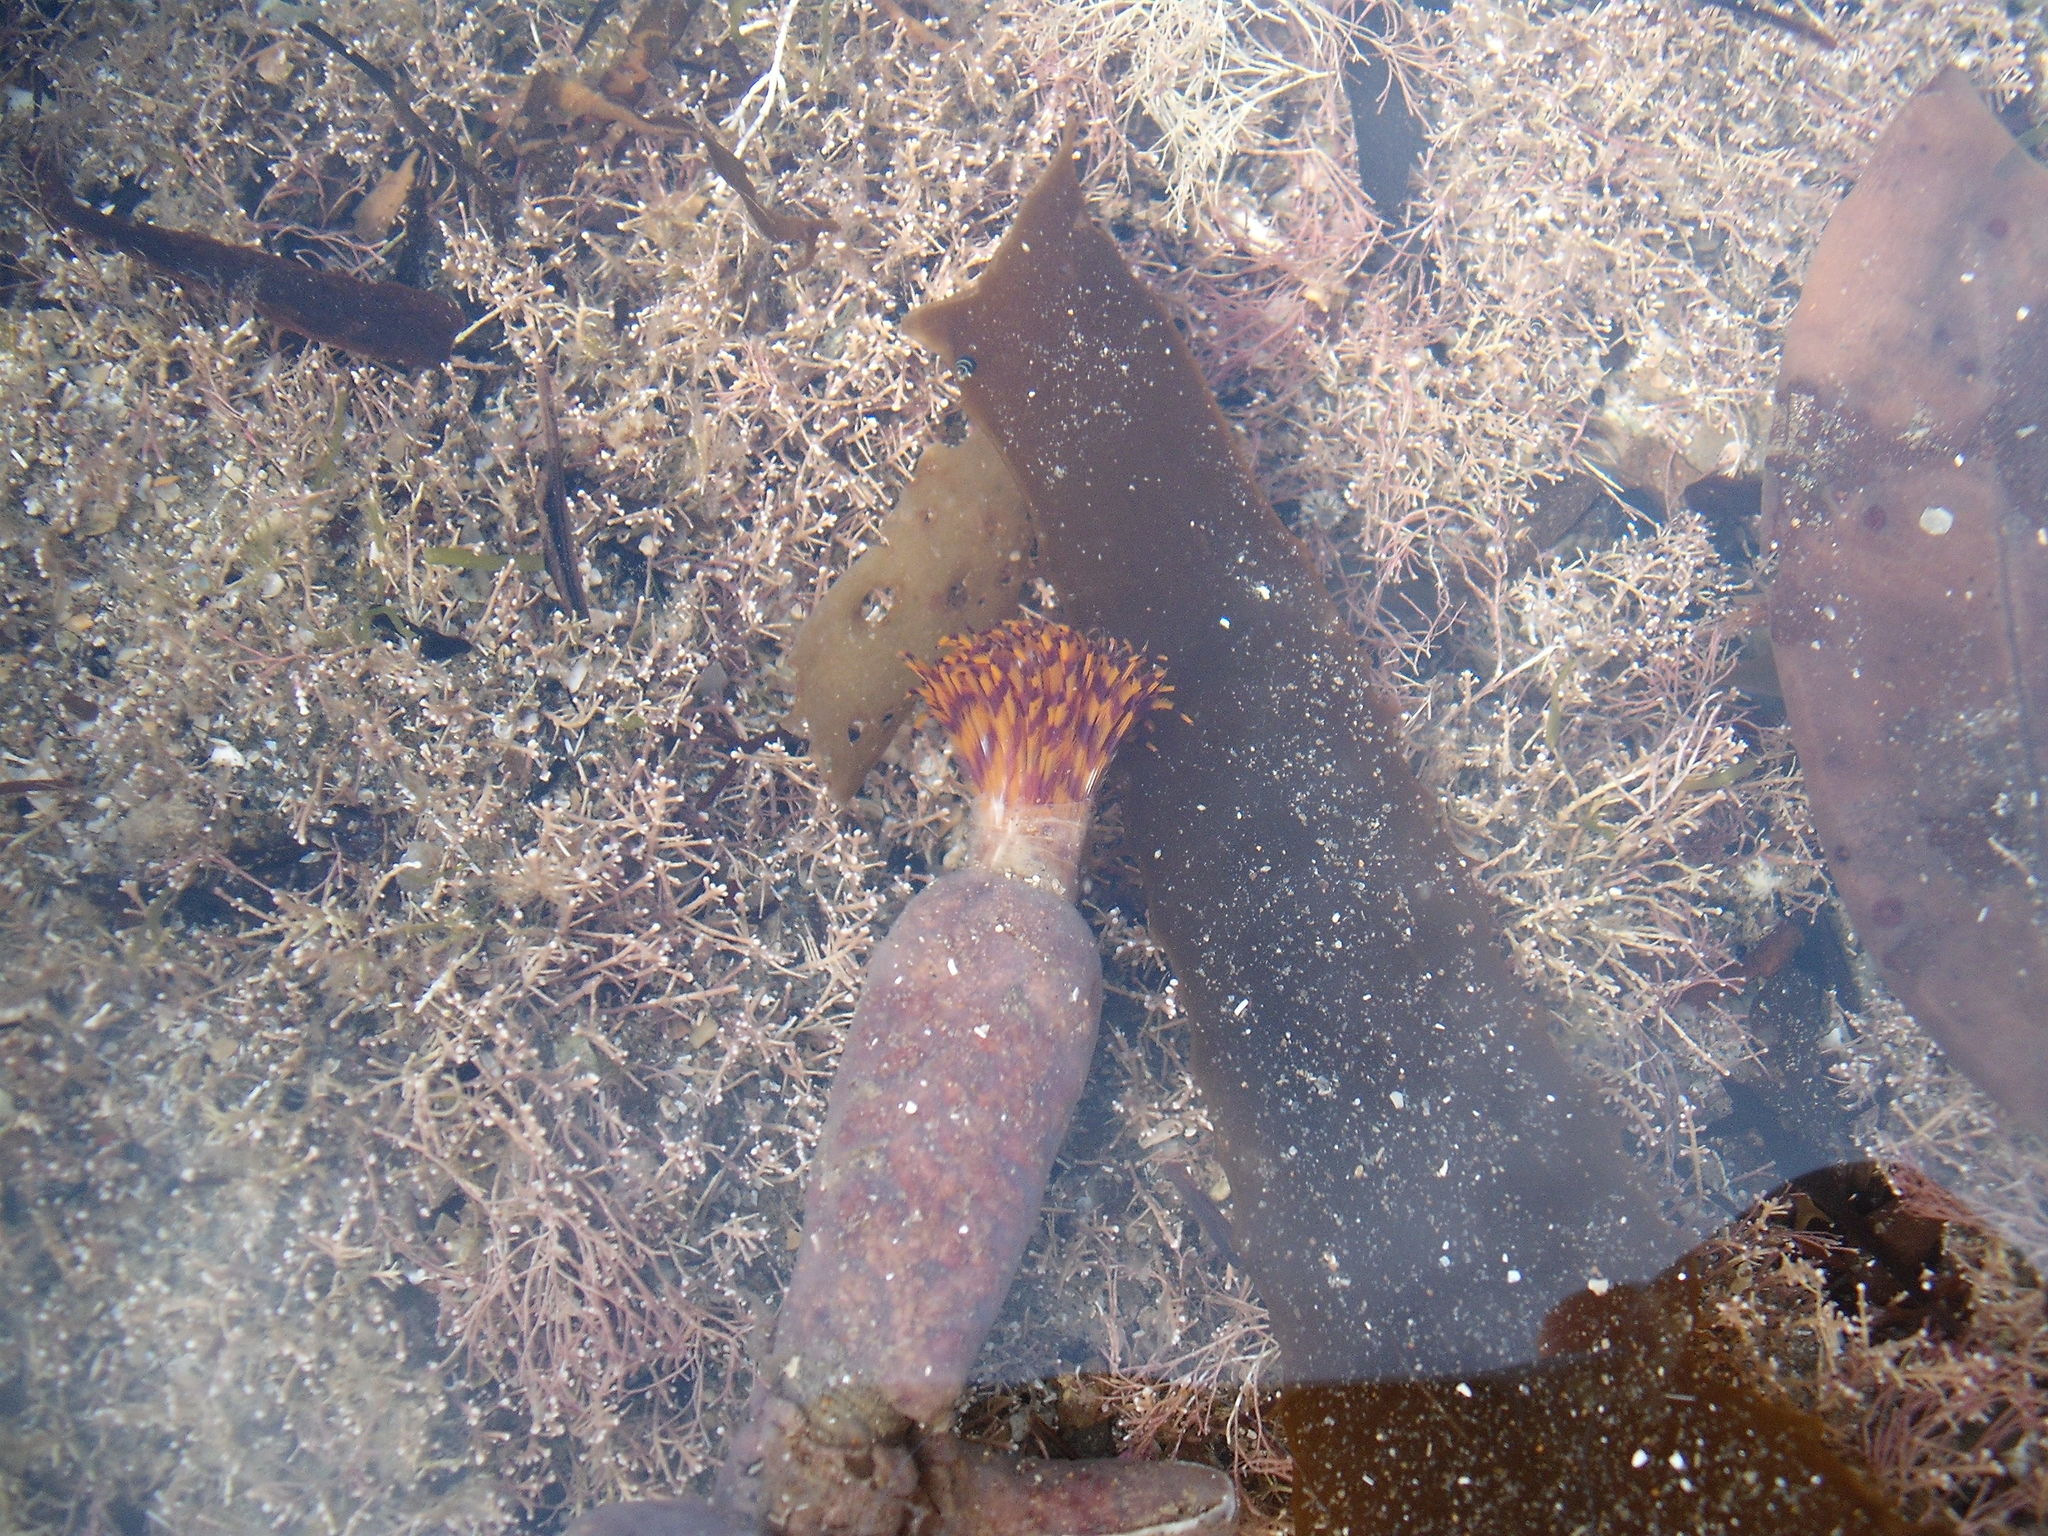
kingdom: Animalia
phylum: Annelida
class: Polychaeta
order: Sabellida
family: Sabellidae
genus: Sabella
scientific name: Sabella spallanzanii
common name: Feather duster worm
